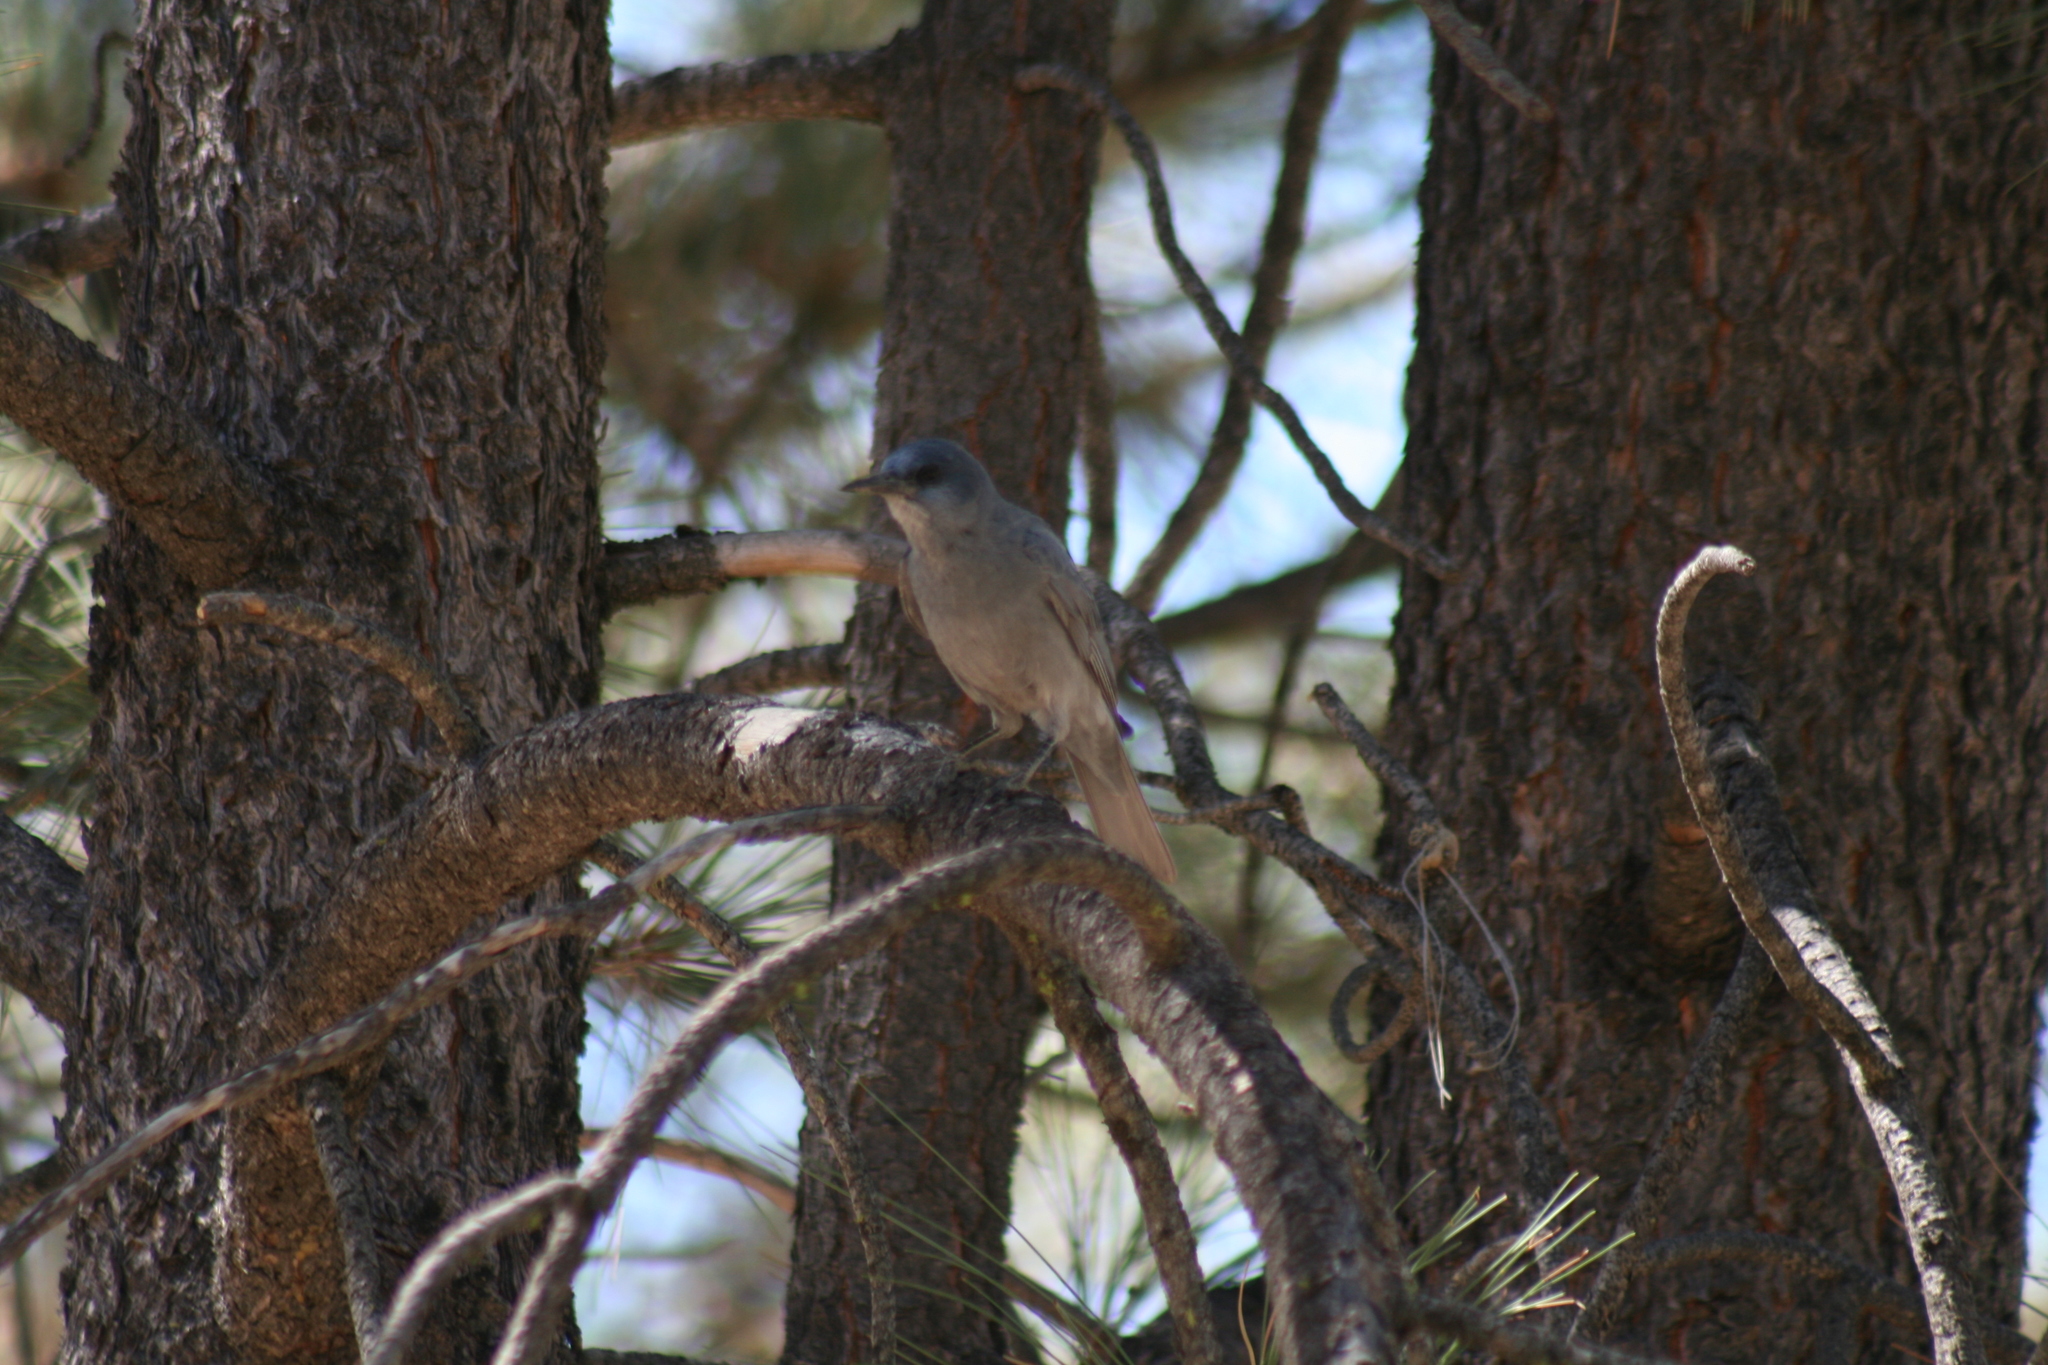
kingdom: Animalia
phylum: Chordata
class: Aves
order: Passeriformes
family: Corvidae
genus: Gymnorhinus
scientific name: Gymnorhinus cyanocephalus
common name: Pinyon jay
